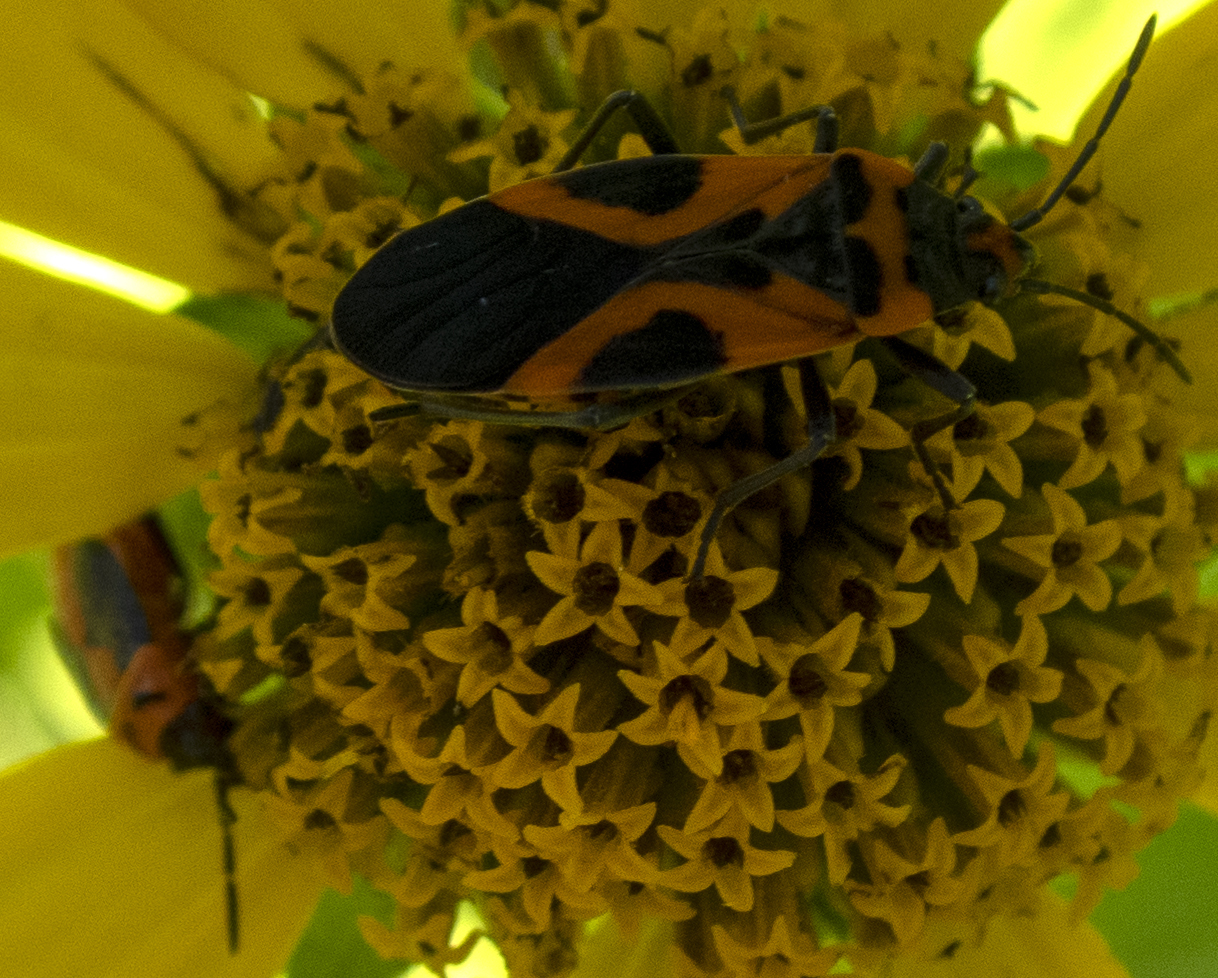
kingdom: Animalia
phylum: Arthropoda
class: Insecta
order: Hemiptera
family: Lygaeidae
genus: Lygaeus
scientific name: Lygaeus turcicus
